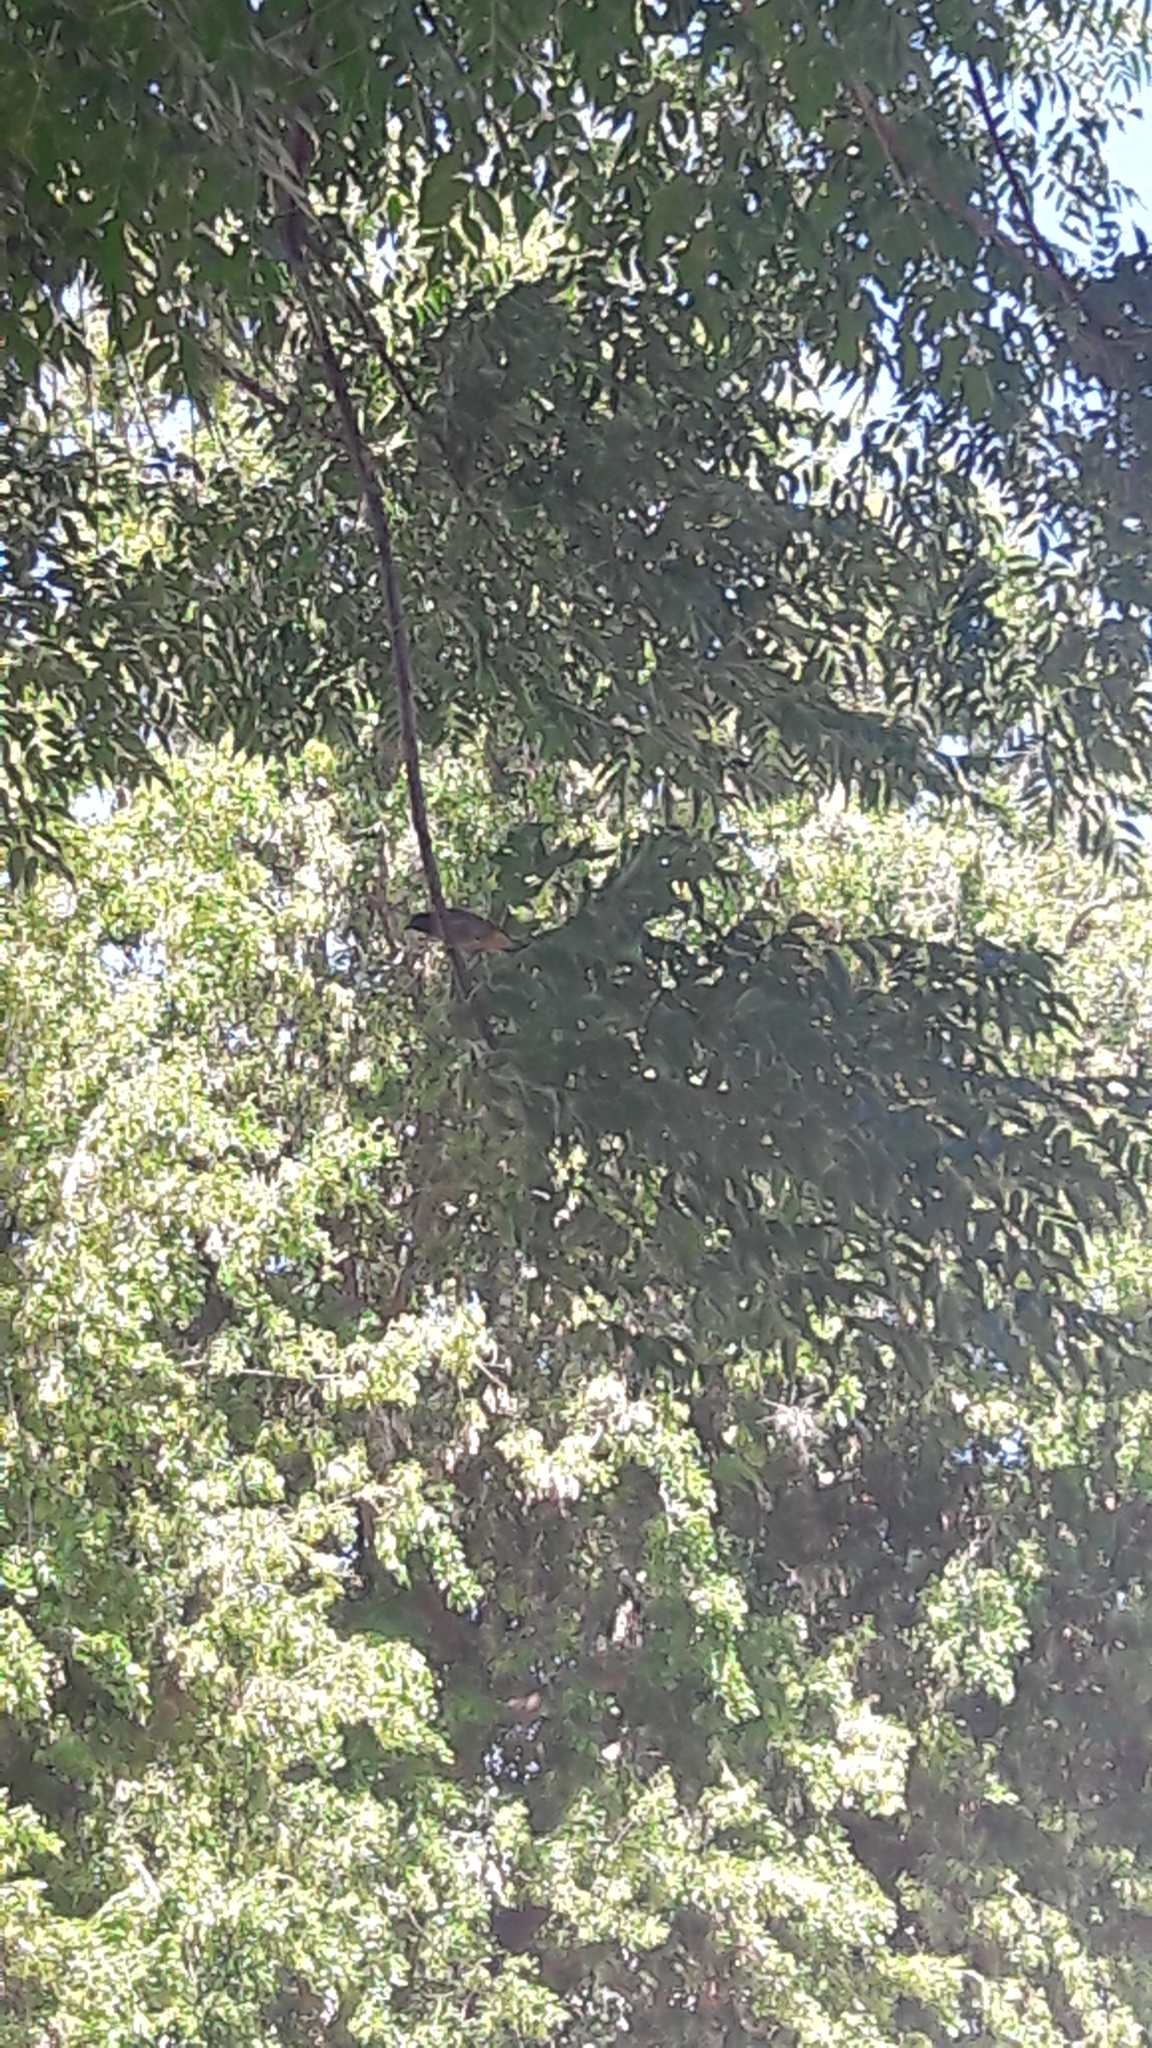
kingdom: Animalia
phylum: Chordata
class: Aves
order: Passeriformes
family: Pycnonotidae
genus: Pycnonotus
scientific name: Pycnonotus xanthopygos
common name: White-spectacled bulbul
